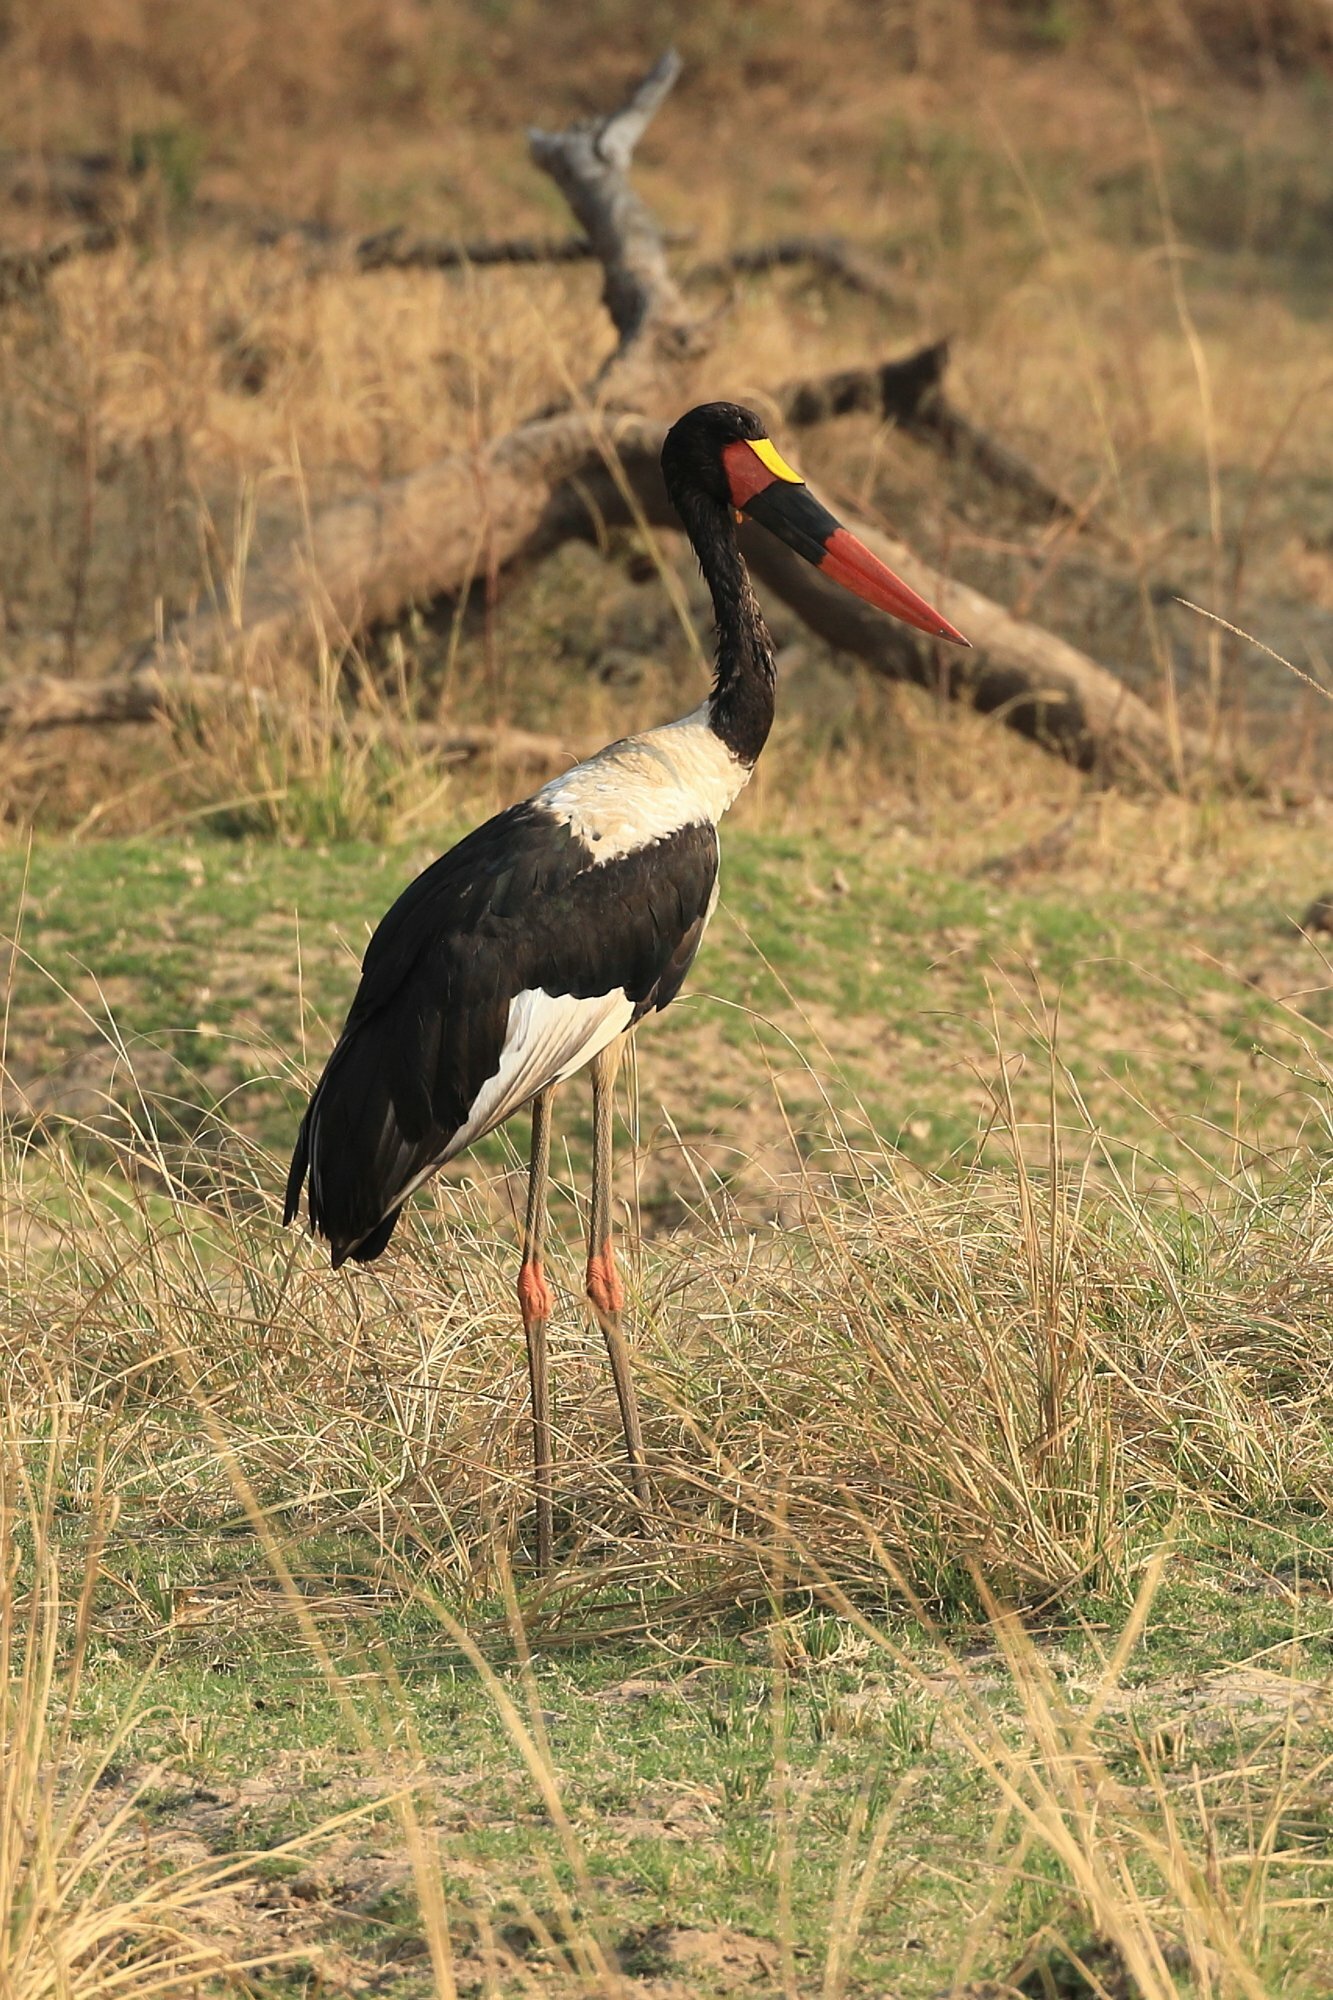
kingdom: Animalia
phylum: Chordata
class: Aves
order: Ciconiiformes
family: Ciconiidae
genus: Ephippiorhynchus
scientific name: Ephippiorhynchus senegalensis
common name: Saddle-billed stork
